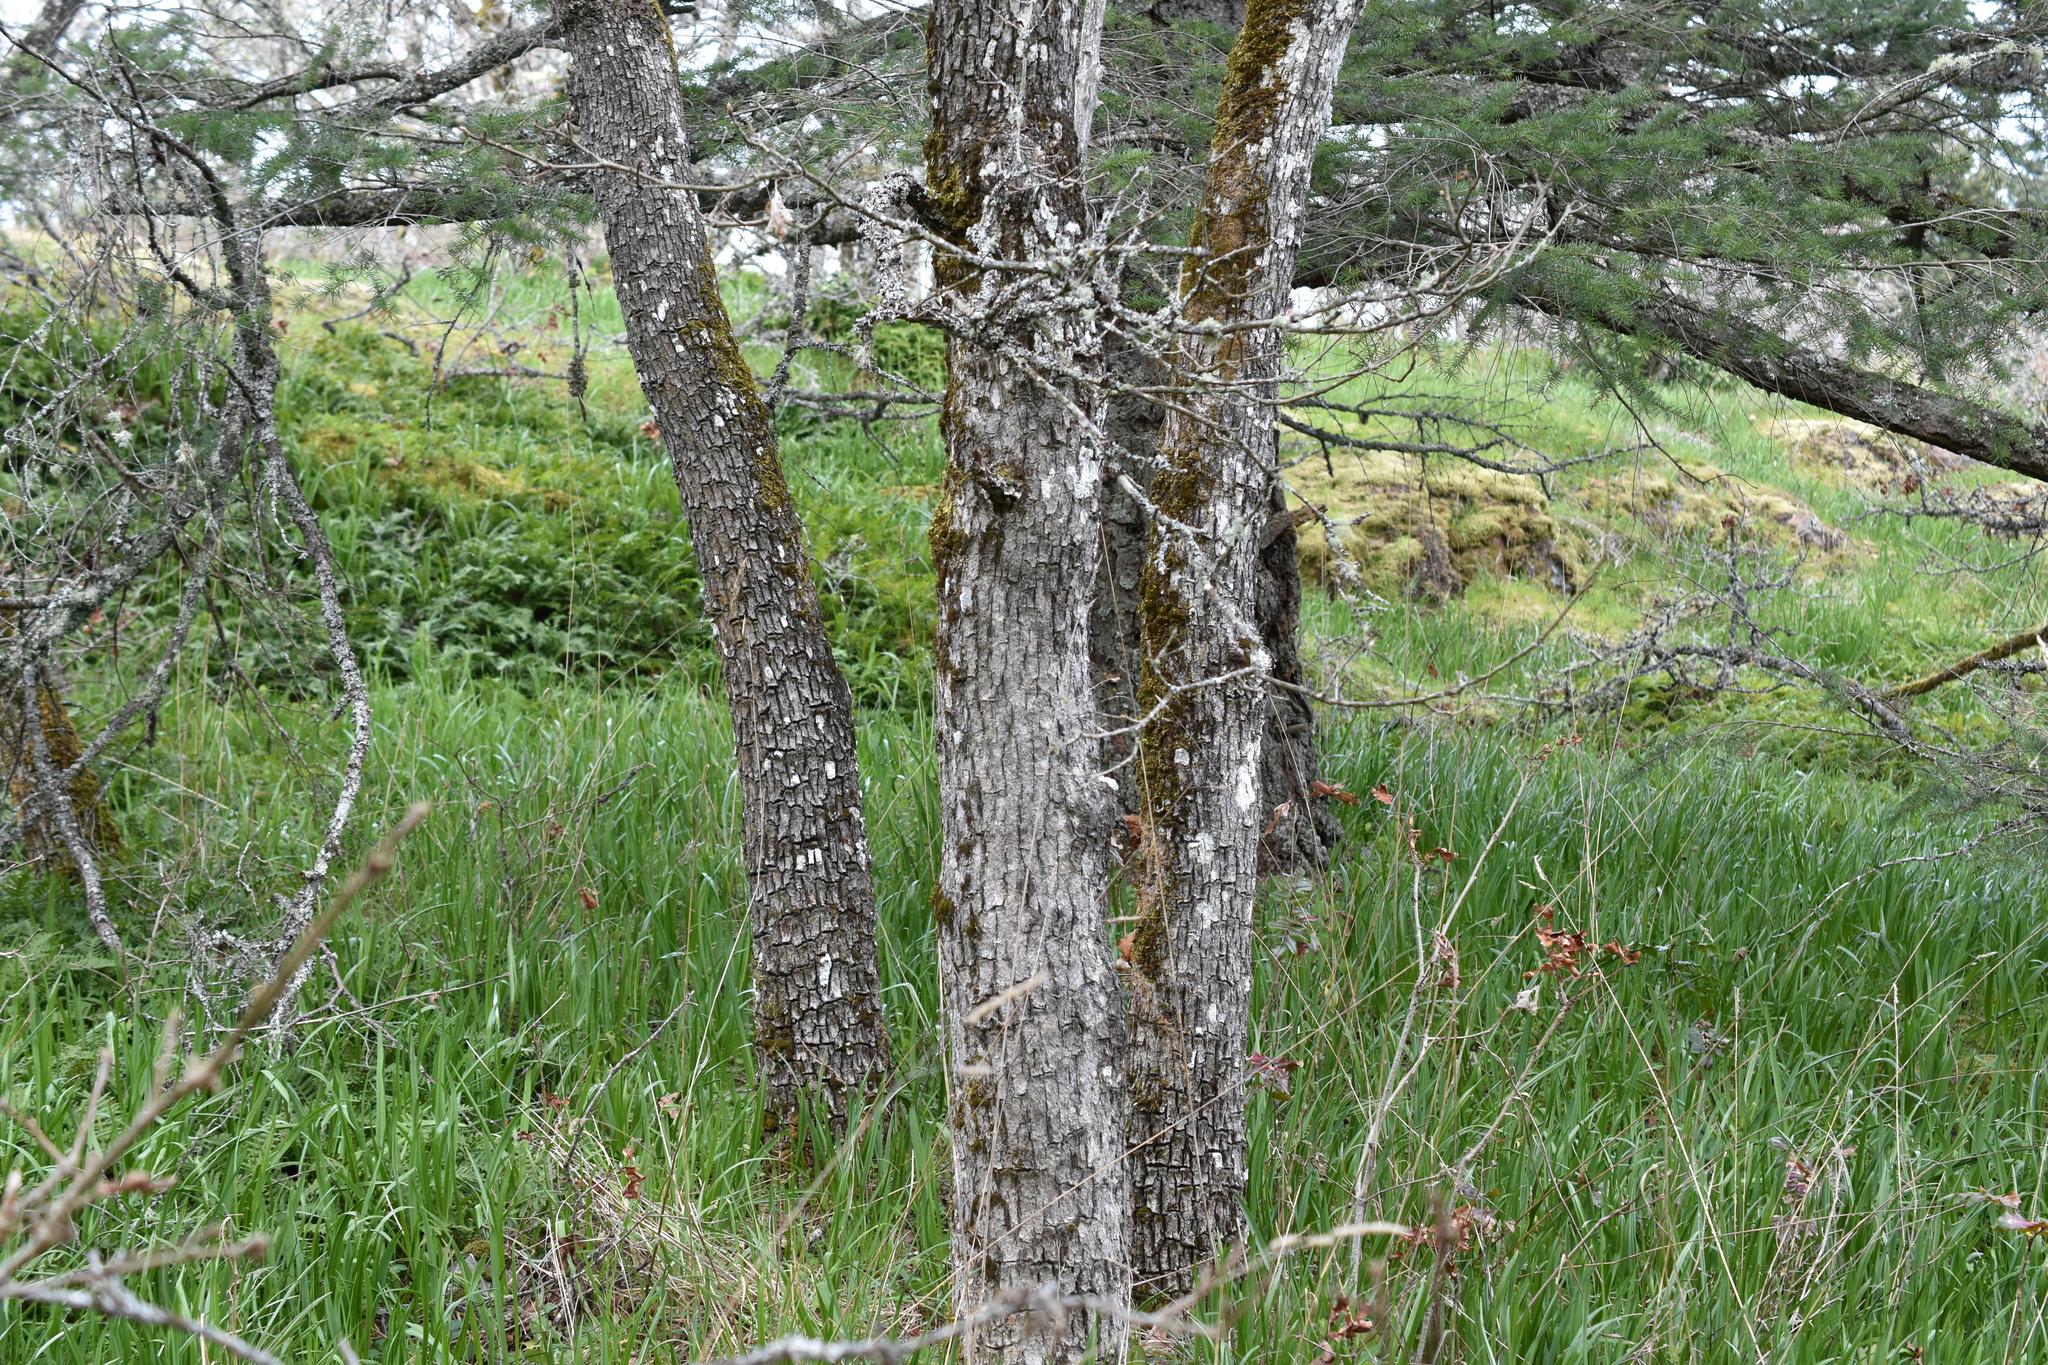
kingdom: Plantae
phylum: Tracheophyta
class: Magnoliopsida
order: Fagales
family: Fagaceae
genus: Quercus
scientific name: Quercus garryana
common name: Garry oak
